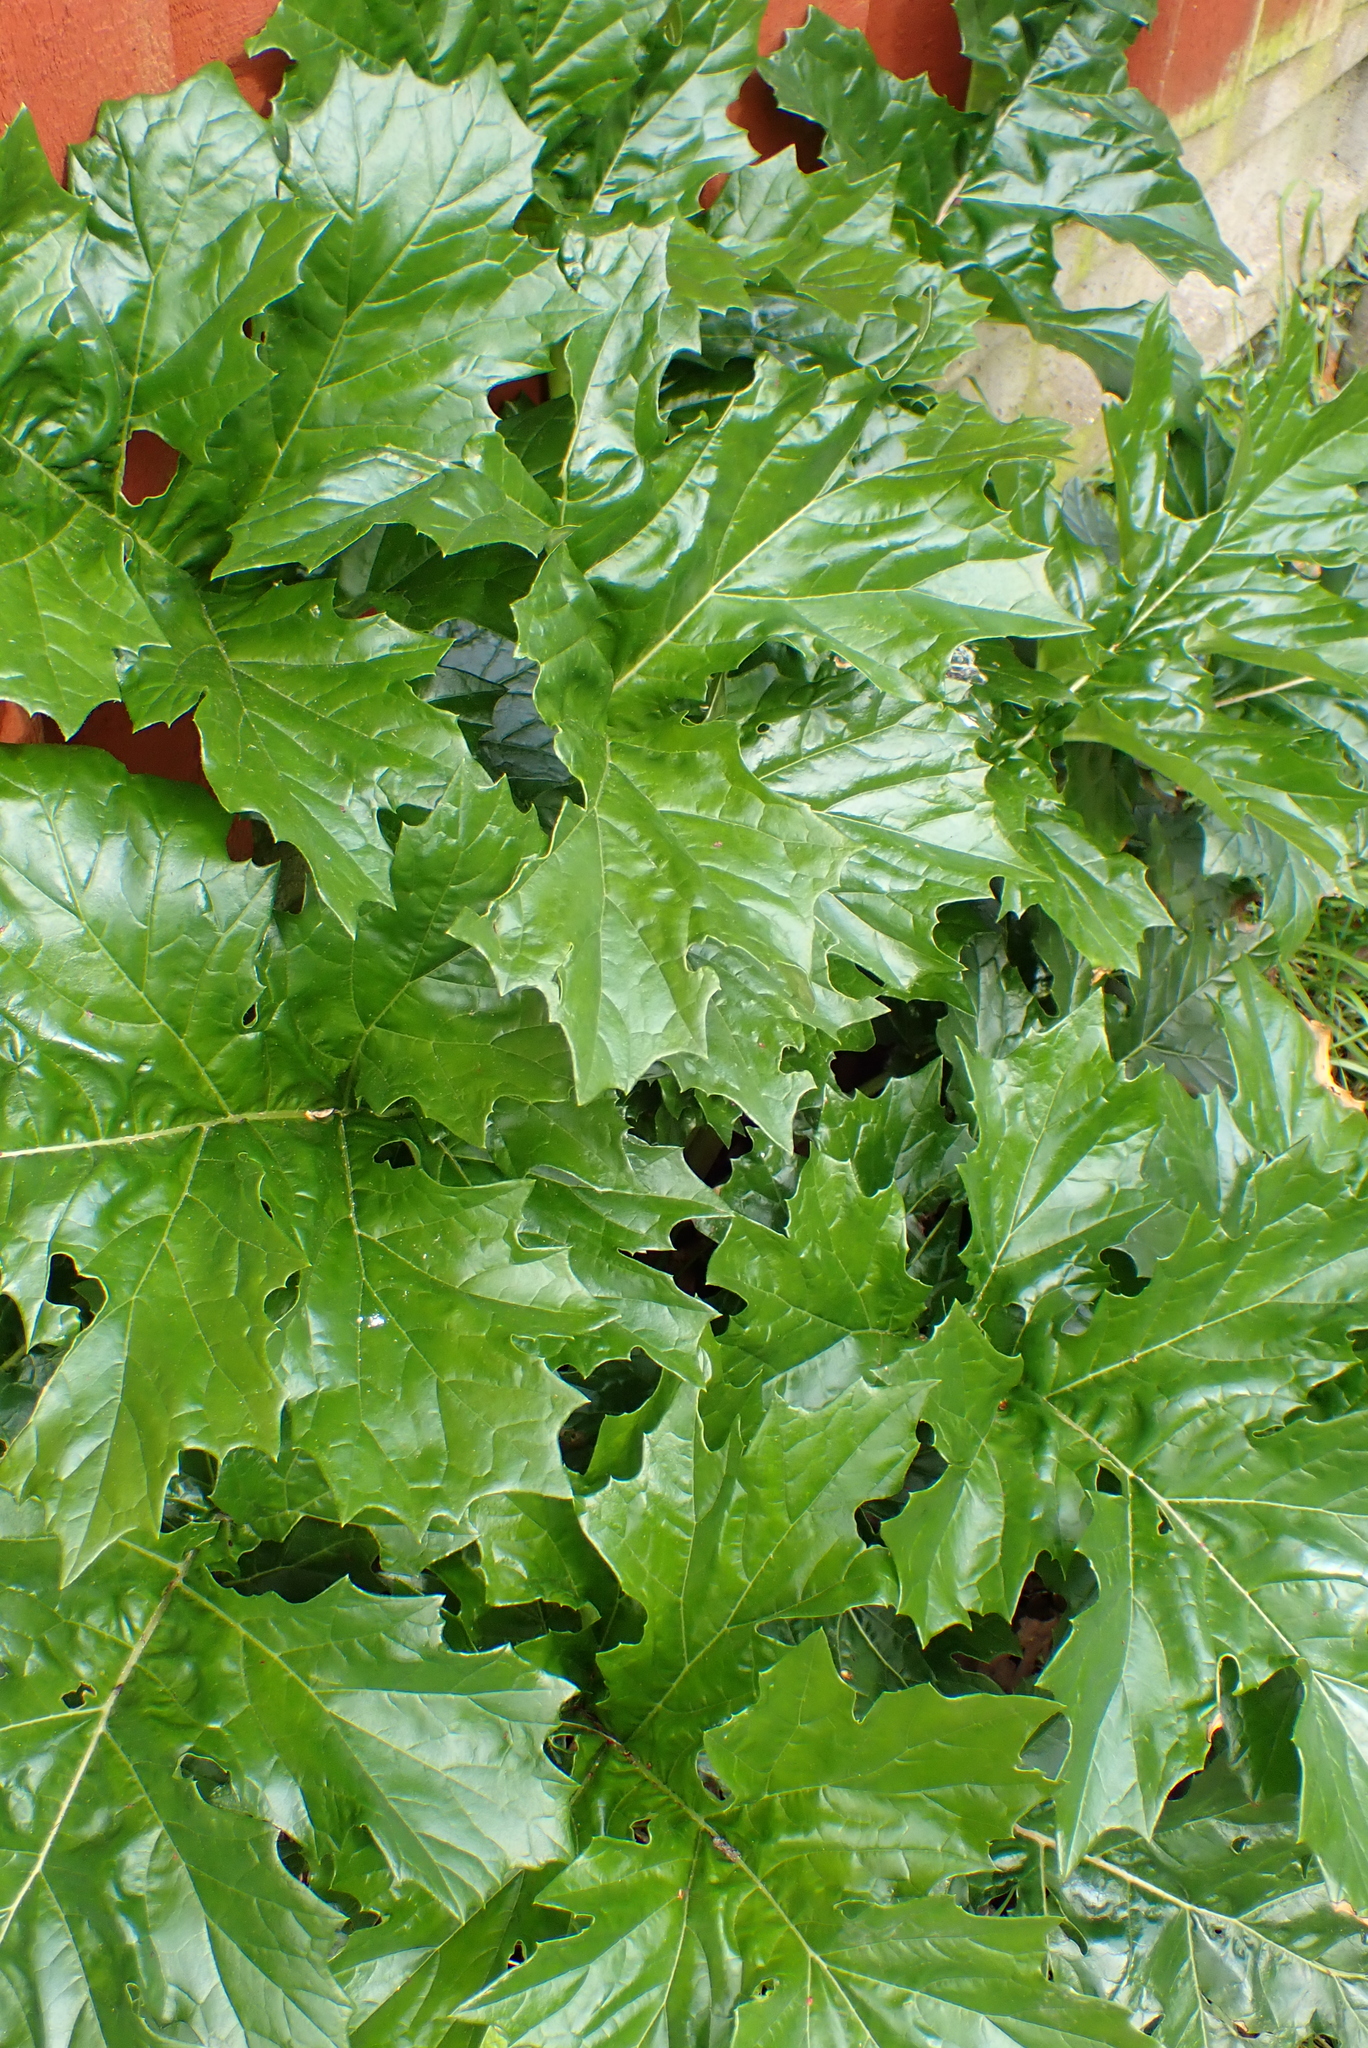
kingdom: Plantae
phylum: Tracheophyta
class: Magnoliopsida
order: Lamiales
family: Acanthaceae
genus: Acanthus
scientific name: Acanthus mollis
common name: Bear's-breech
